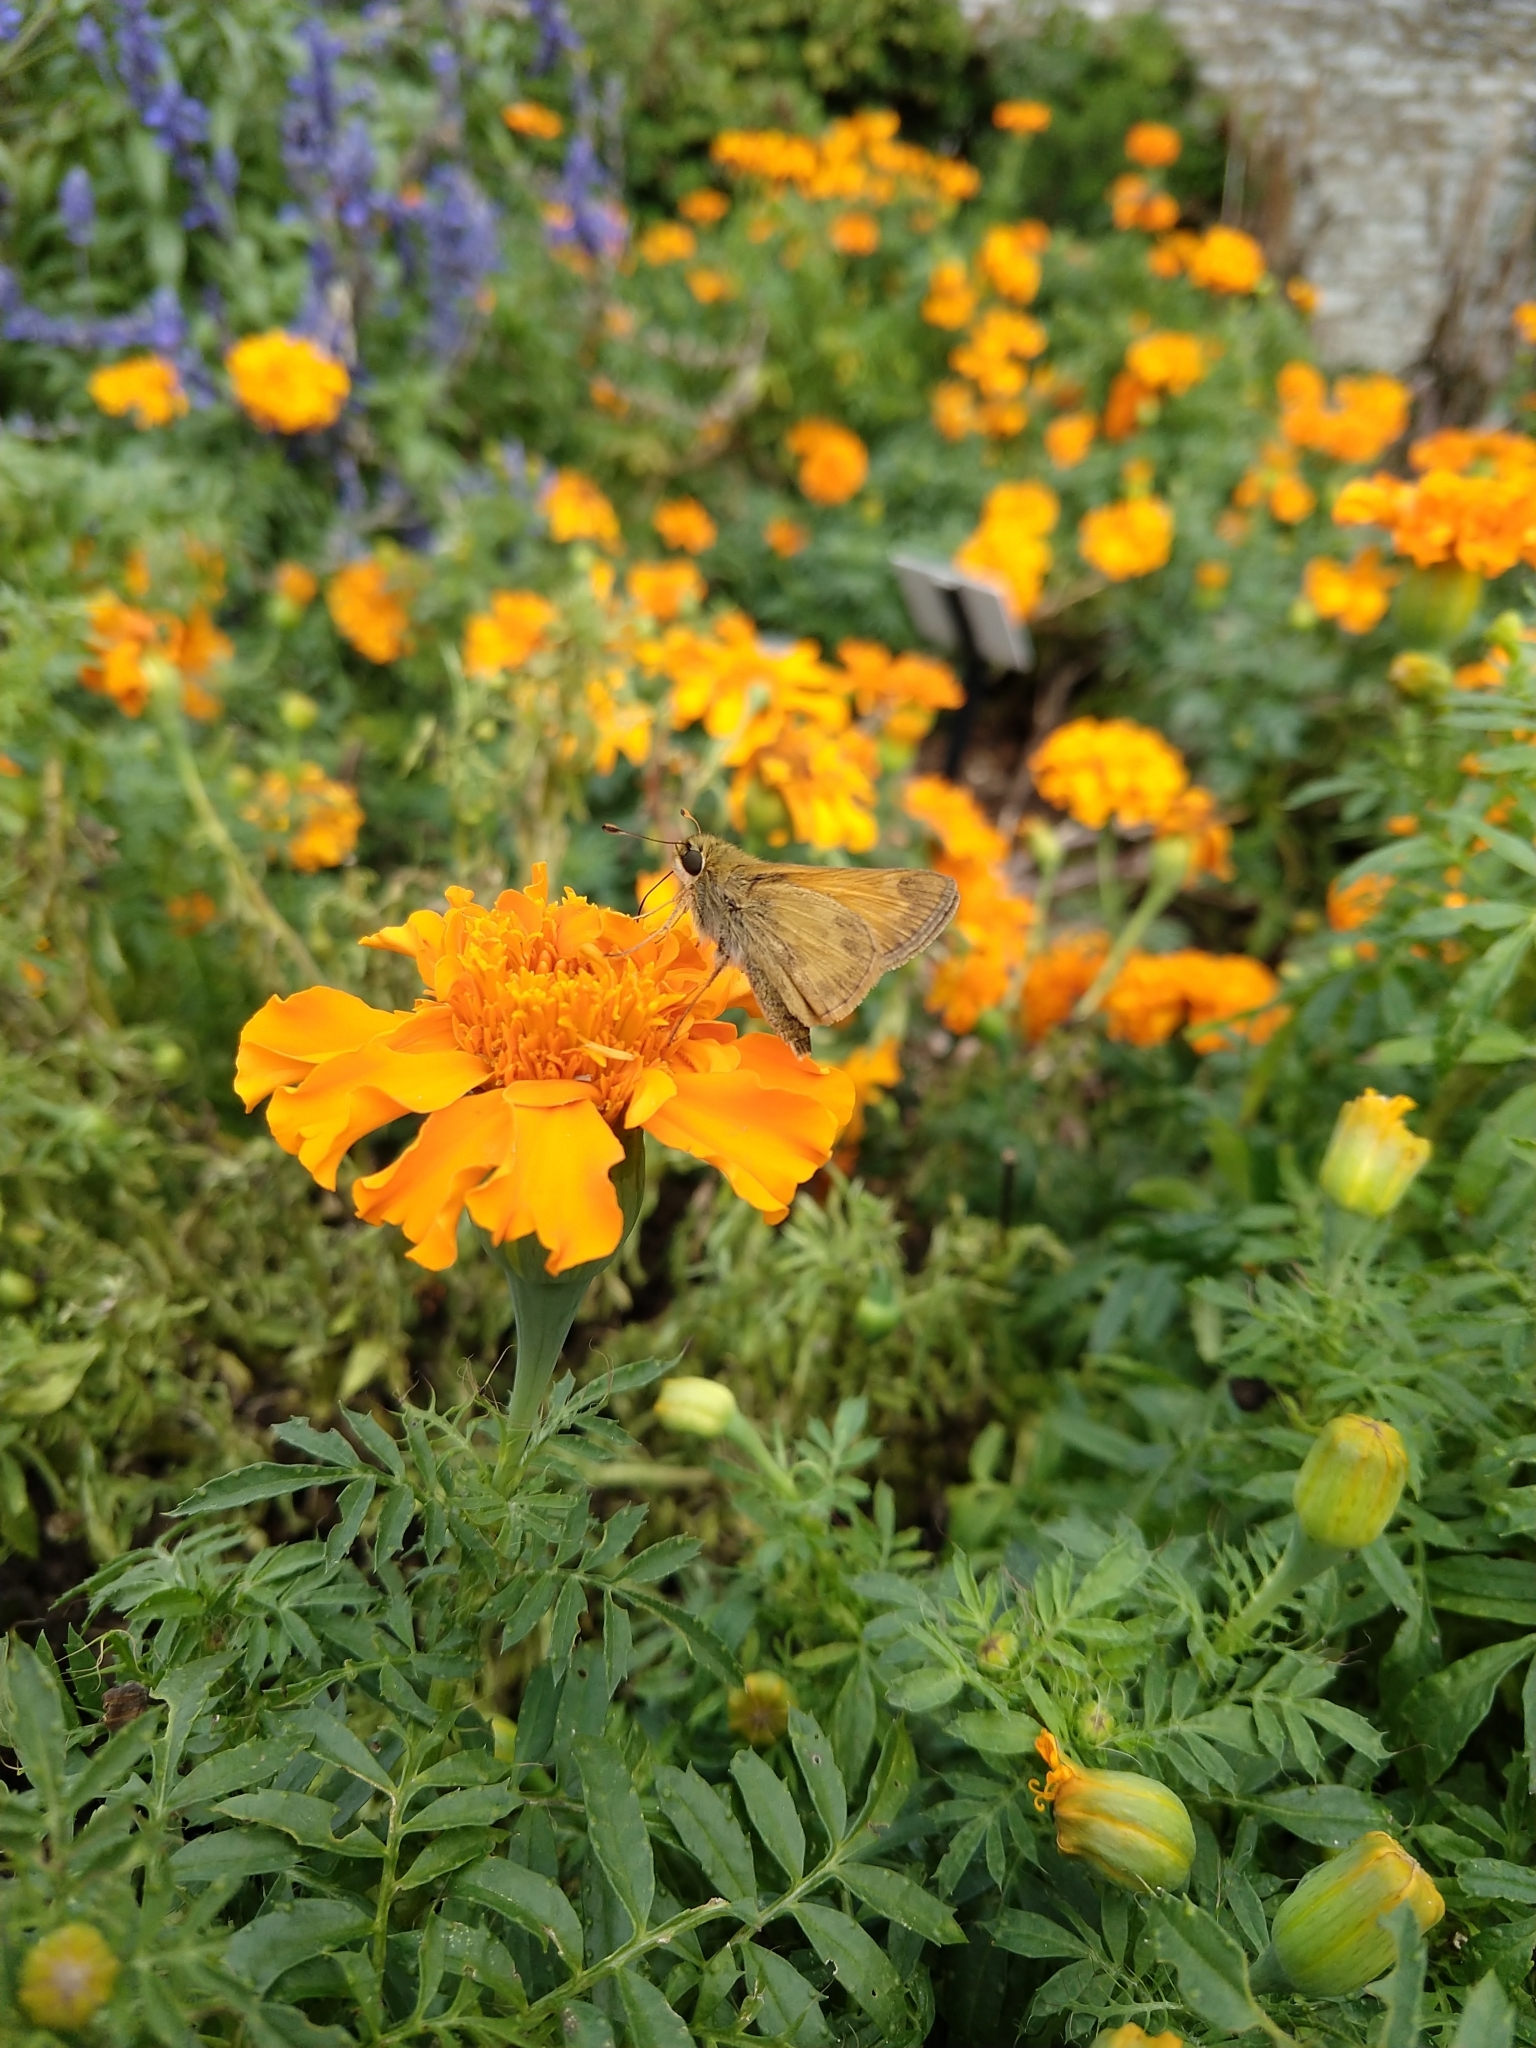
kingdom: Animalia
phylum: Arthropoda
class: Insecta
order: Lepidoptera
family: Hesperiidae
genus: Atalopedes
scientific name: Atalopedes
